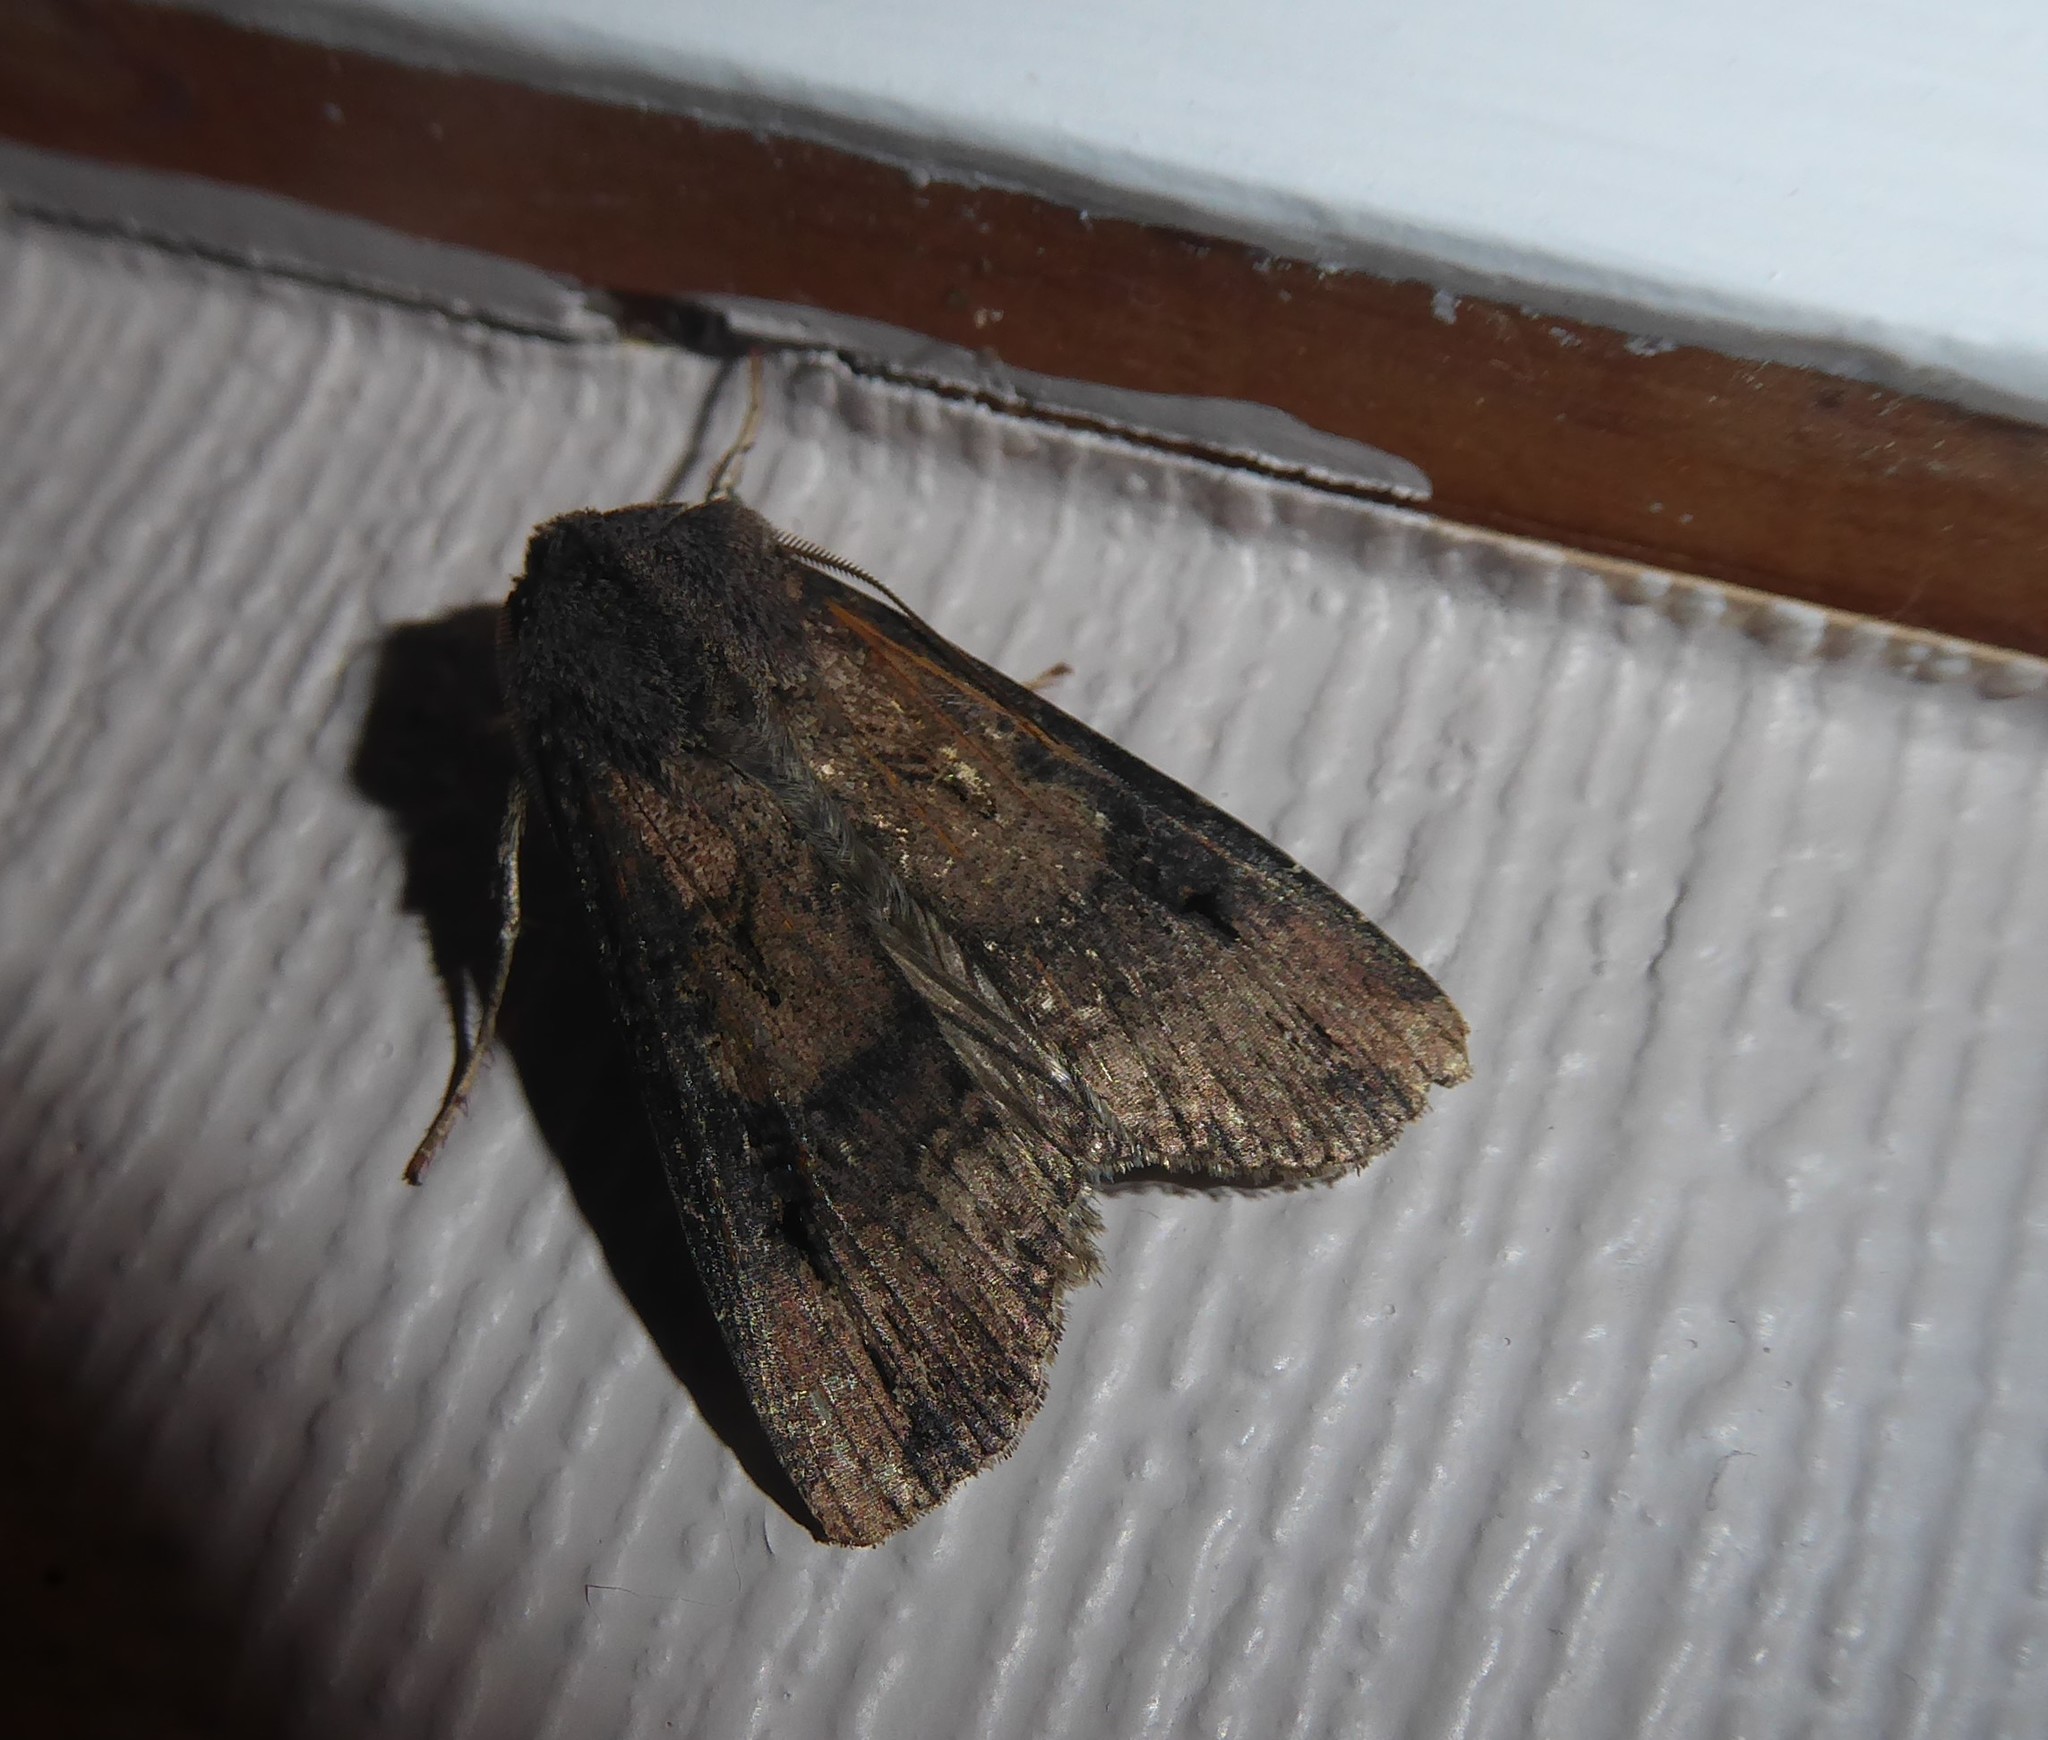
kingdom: Animalia
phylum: Arthropoda
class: Insecta
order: Lepidoptera
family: Noctuidae
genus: Agrotis
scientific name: Agrotis ipsilon
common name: Dark sword-grass
